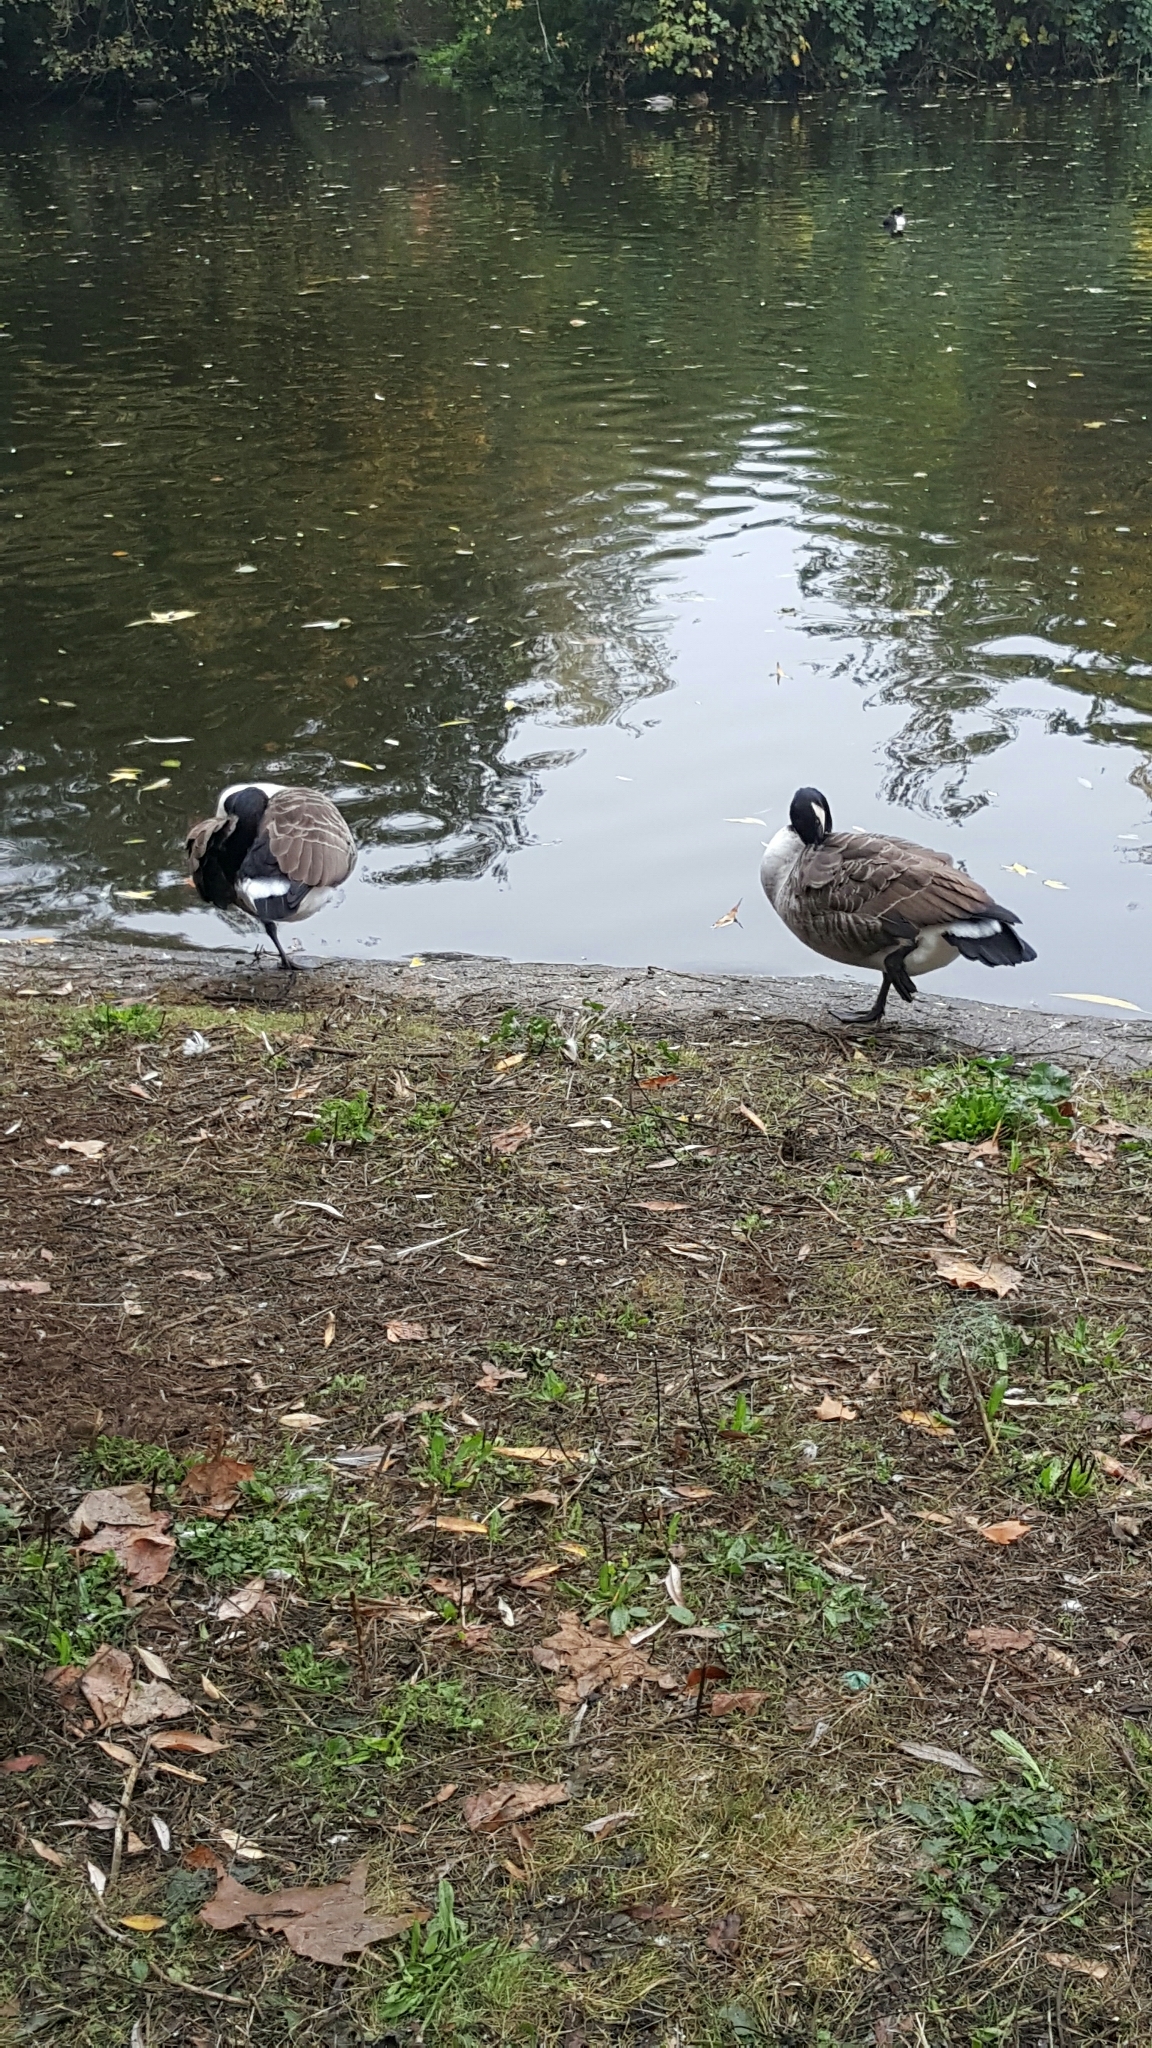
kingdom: Animalia
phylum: Chordata
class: Aves
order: Anseriformes
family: Anatidae
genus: Branta
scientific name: Branta canadensis
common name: Canada goose
